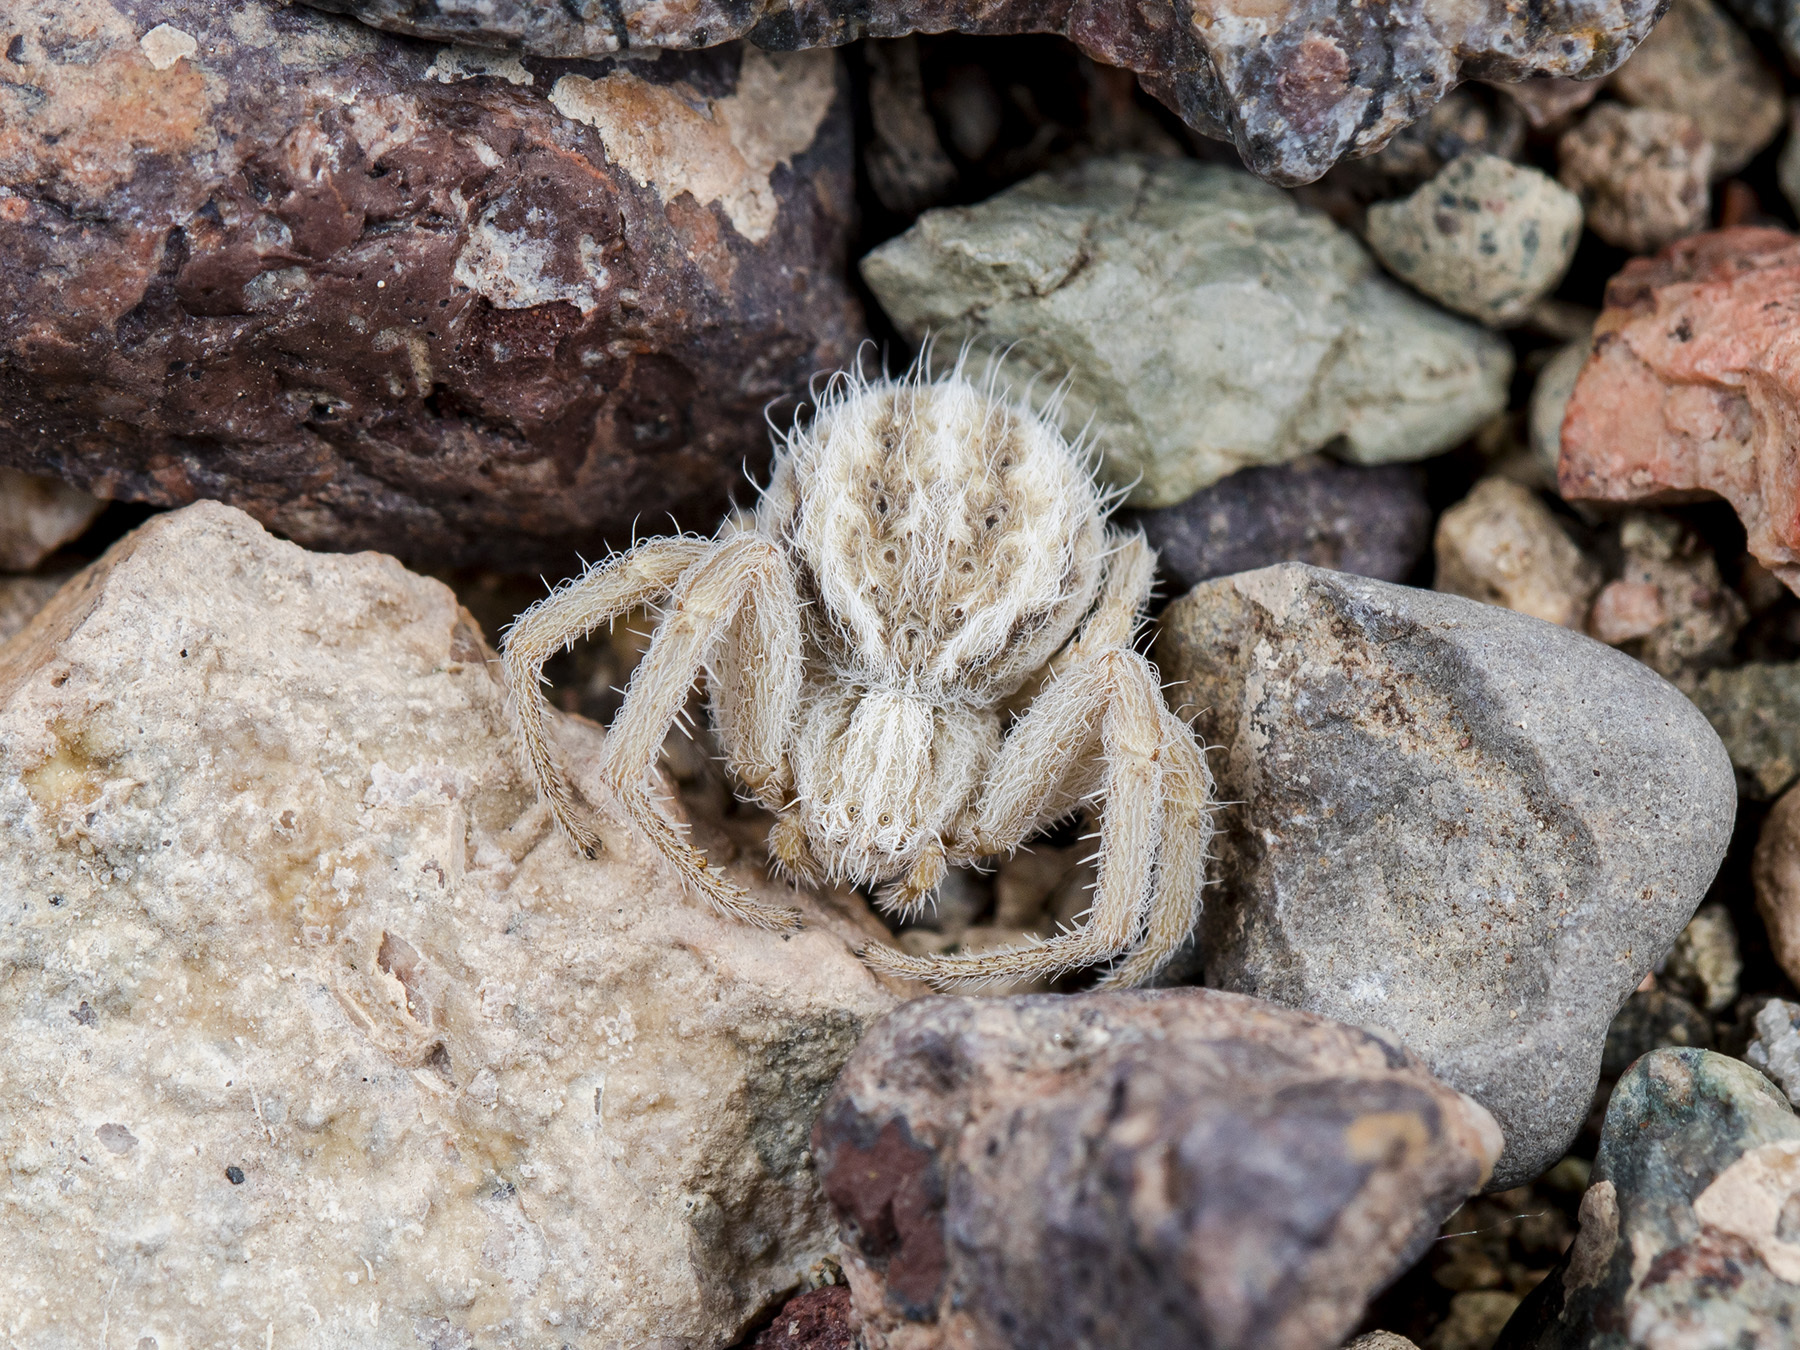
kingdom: Animalia
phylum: Arthropoda
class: Arachnida
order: Araneae
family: Thomisidae
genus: Heriaeus
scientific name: Heriaeus horridus
